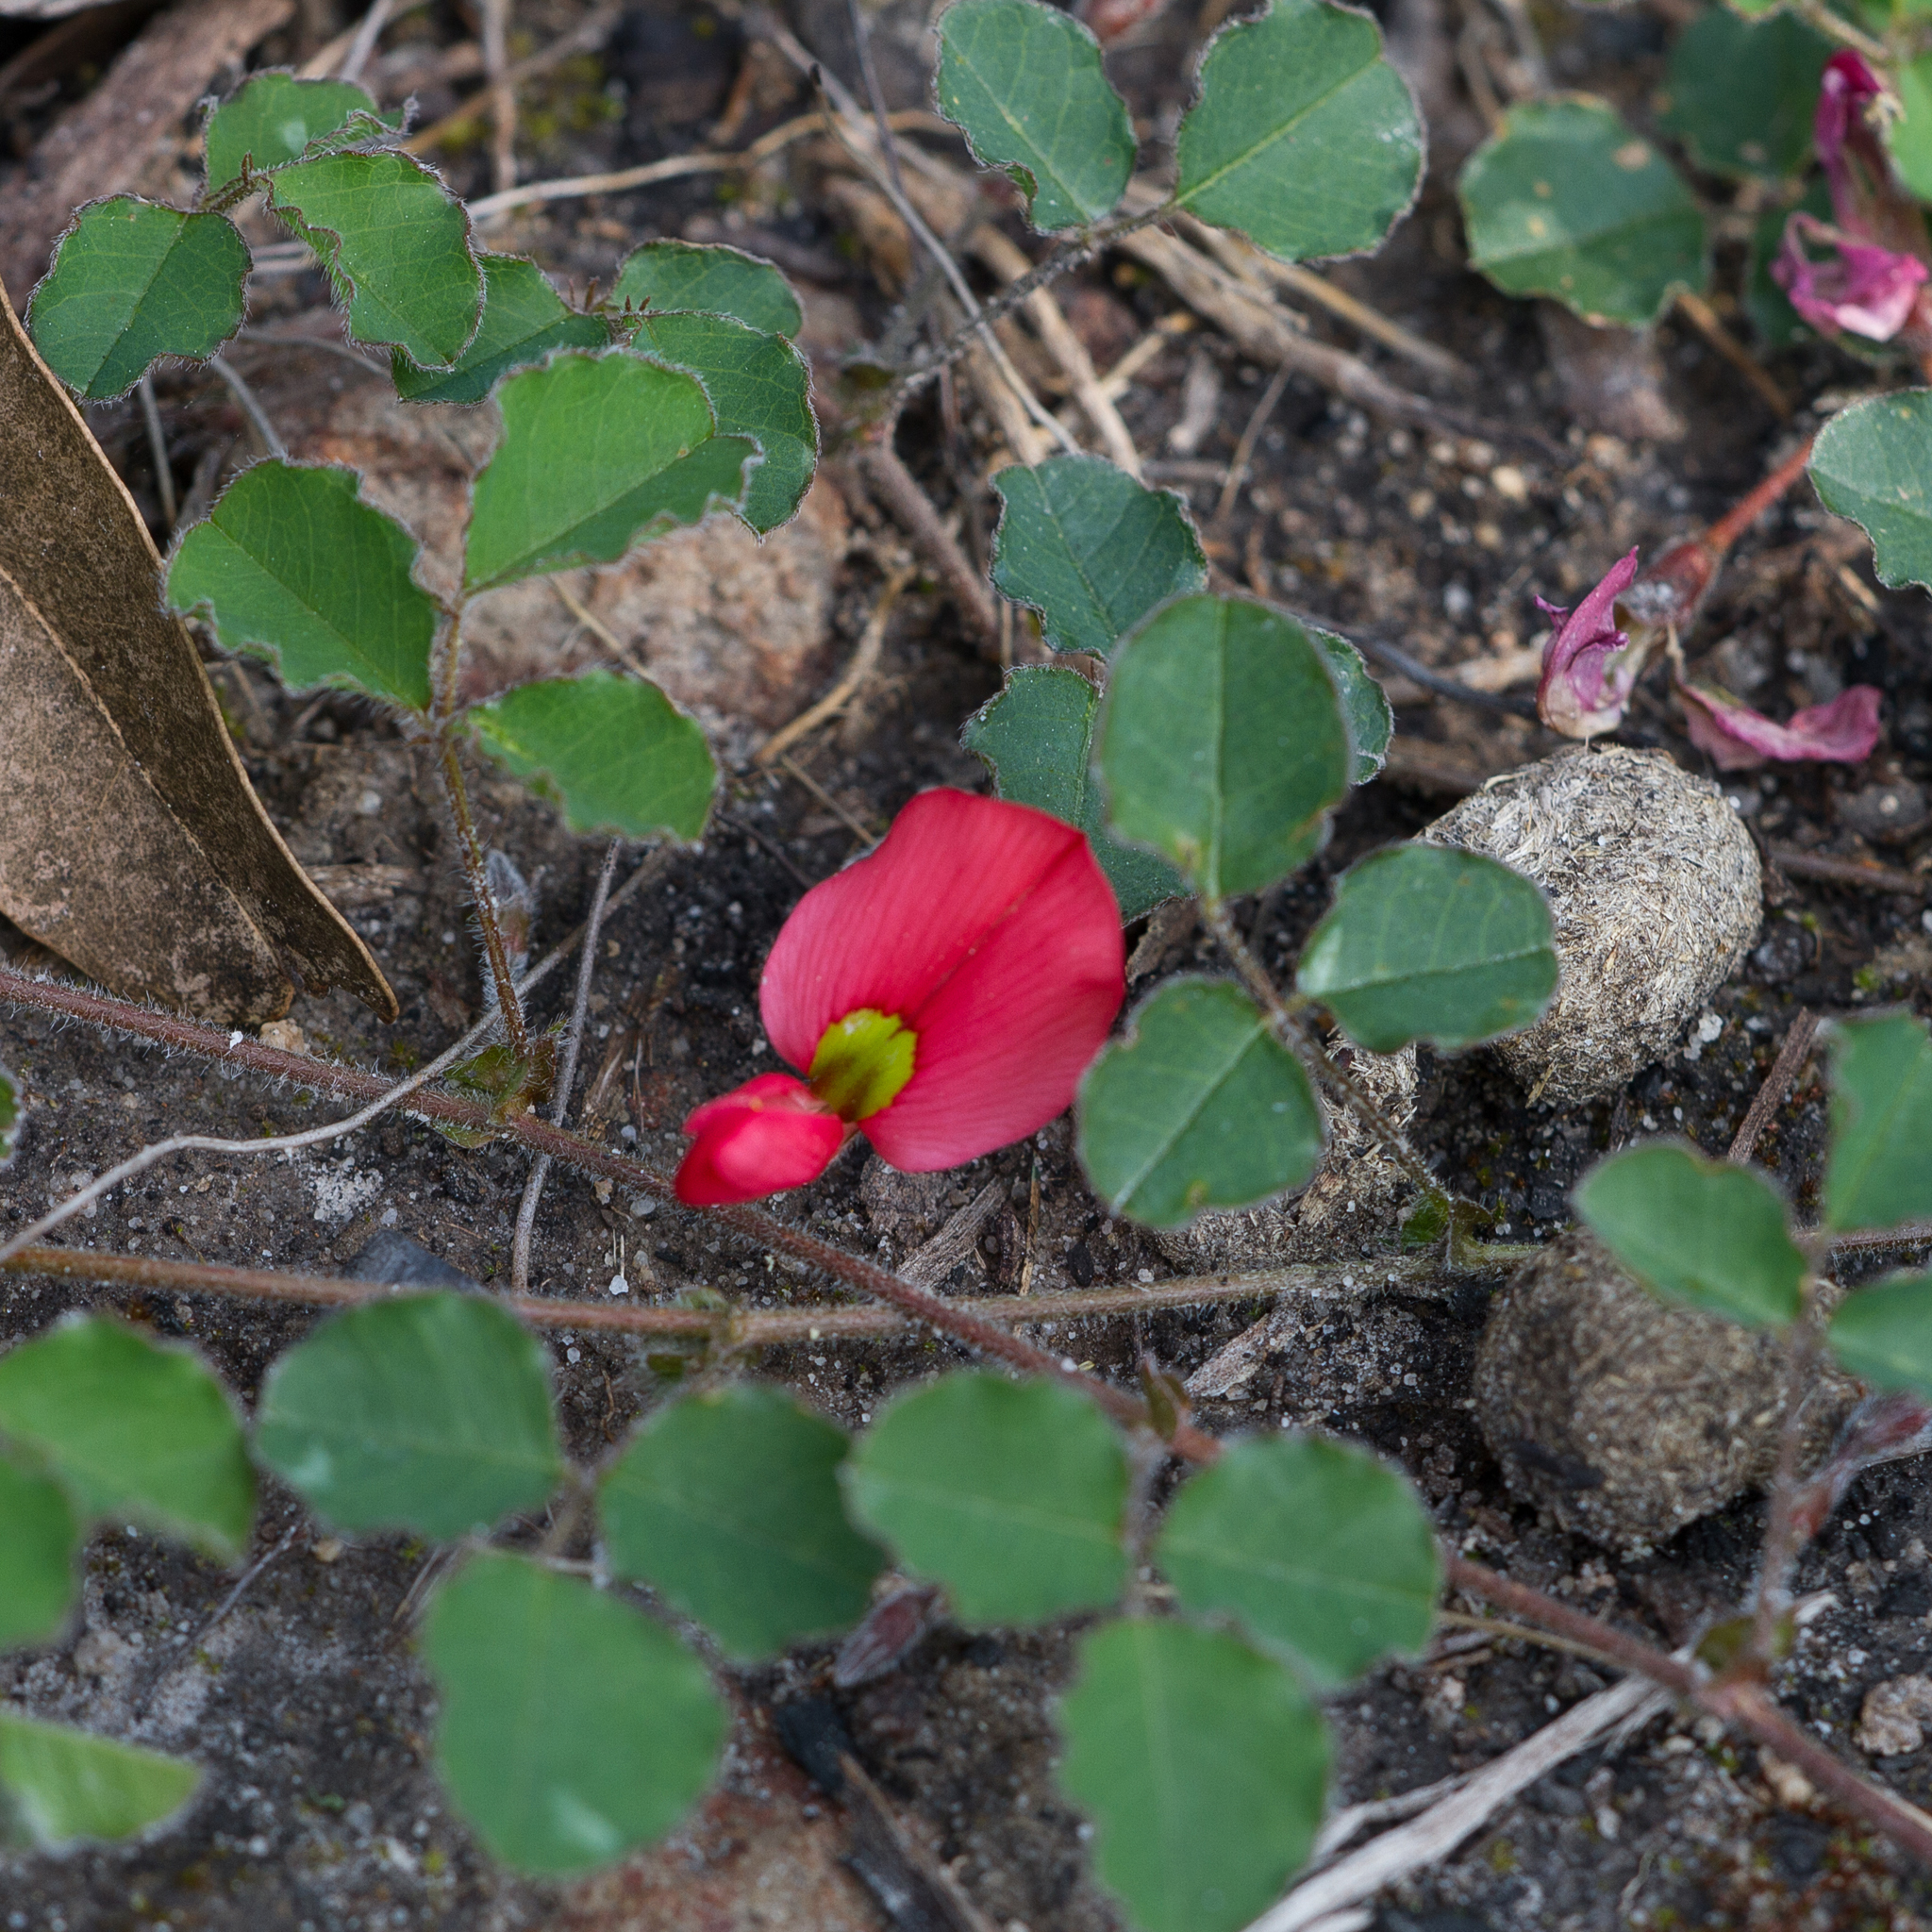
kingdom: Plantae
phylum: Tracheophyta
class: Magnoliopsida
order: Fabales
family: Fabaceae
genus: Kennedia
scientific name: Kennedia prostrata
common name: Running-postman
